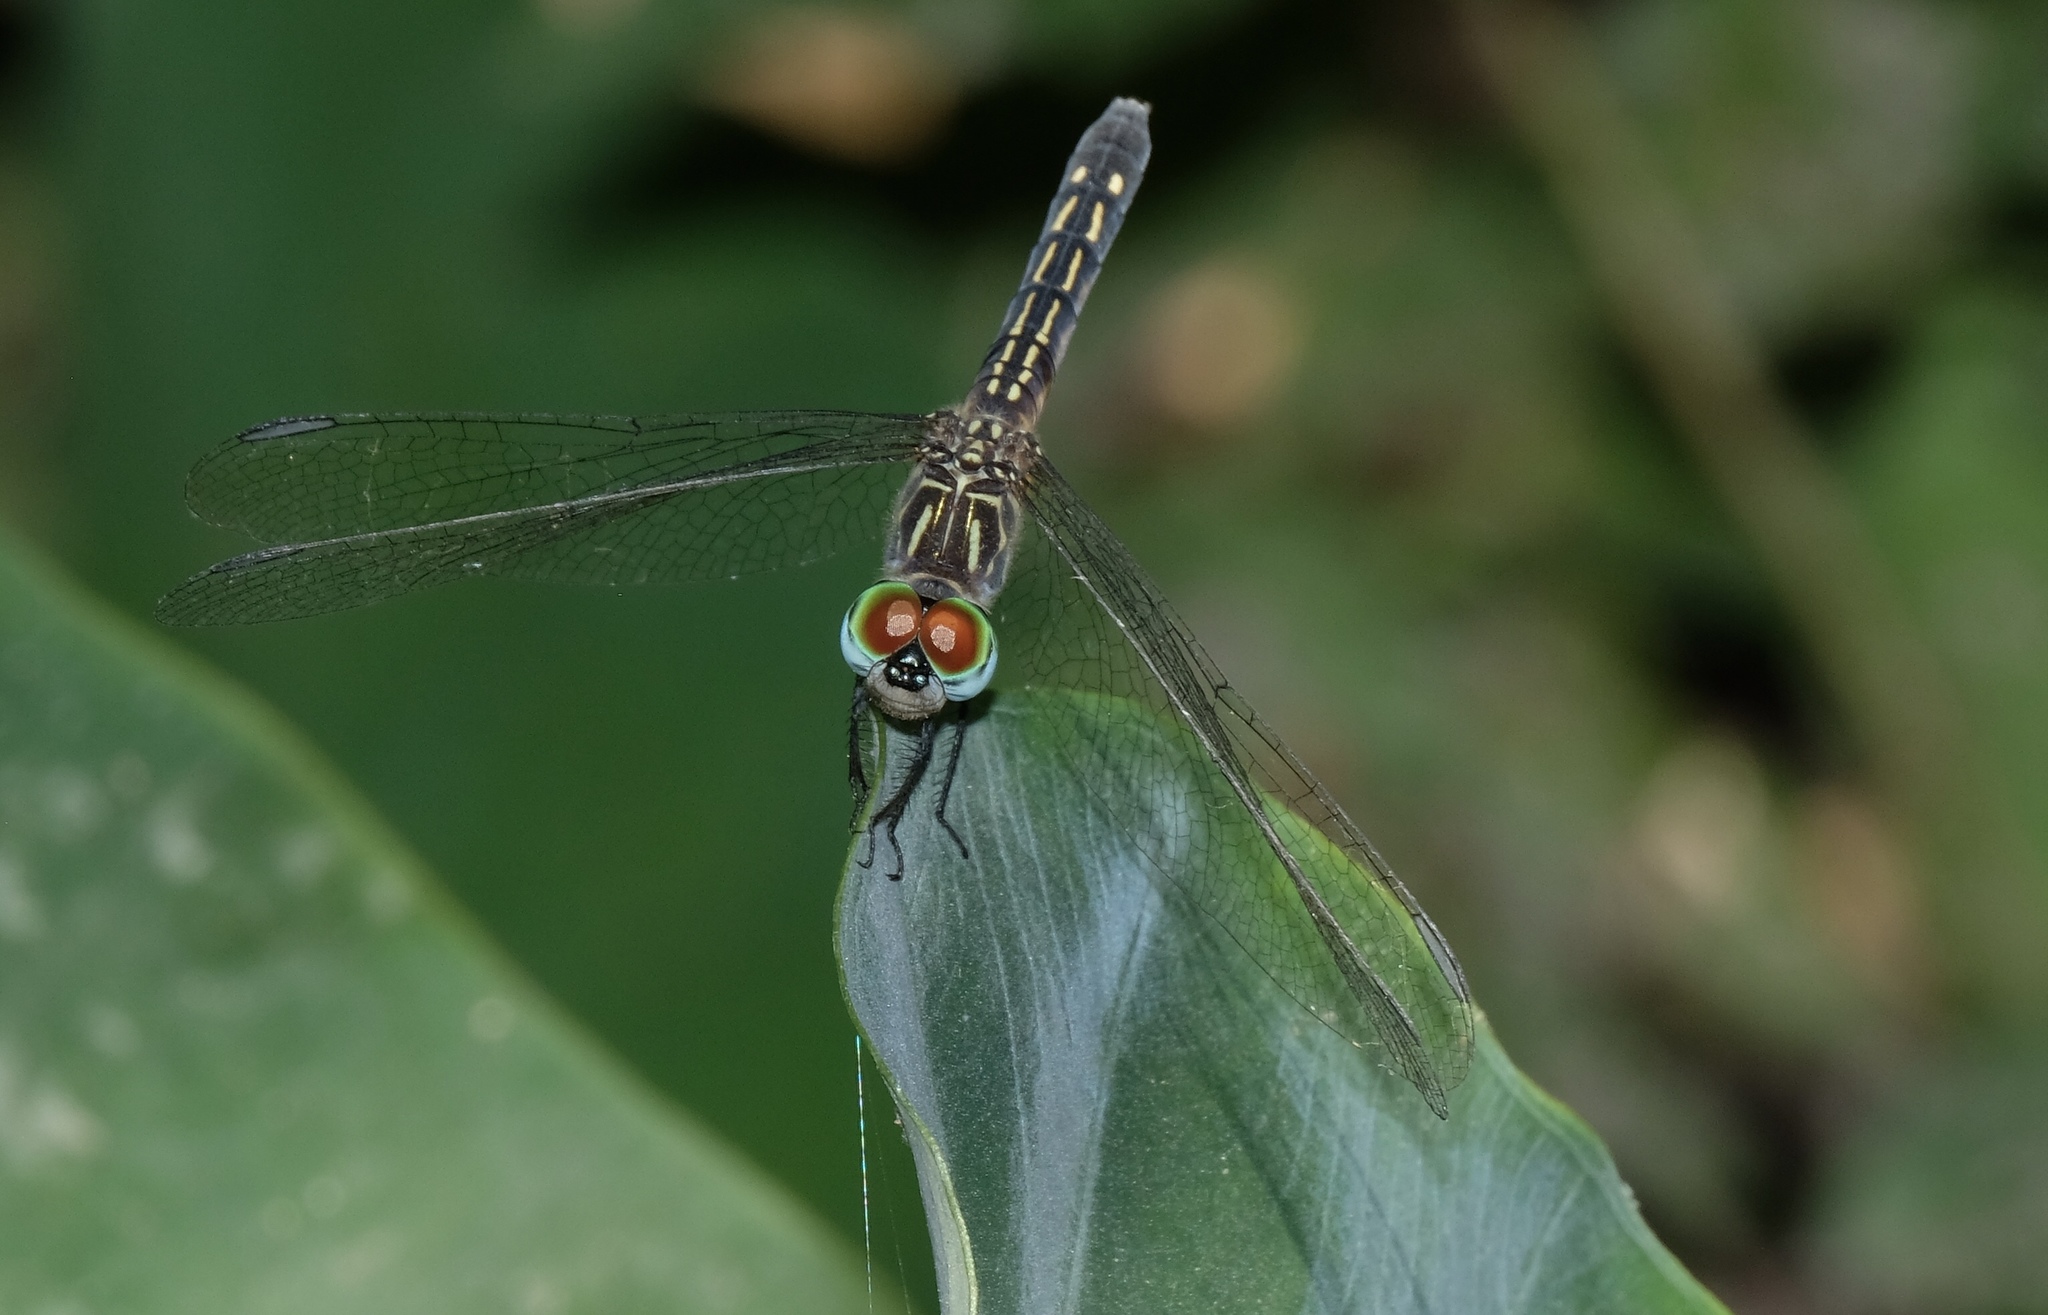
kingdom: Animalia
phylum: Arthropoda
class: Insecta
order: Odonata
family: Libellulidae
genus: Pachydiplax
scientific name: Pachydiplax longipennis
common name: Blue dasher
